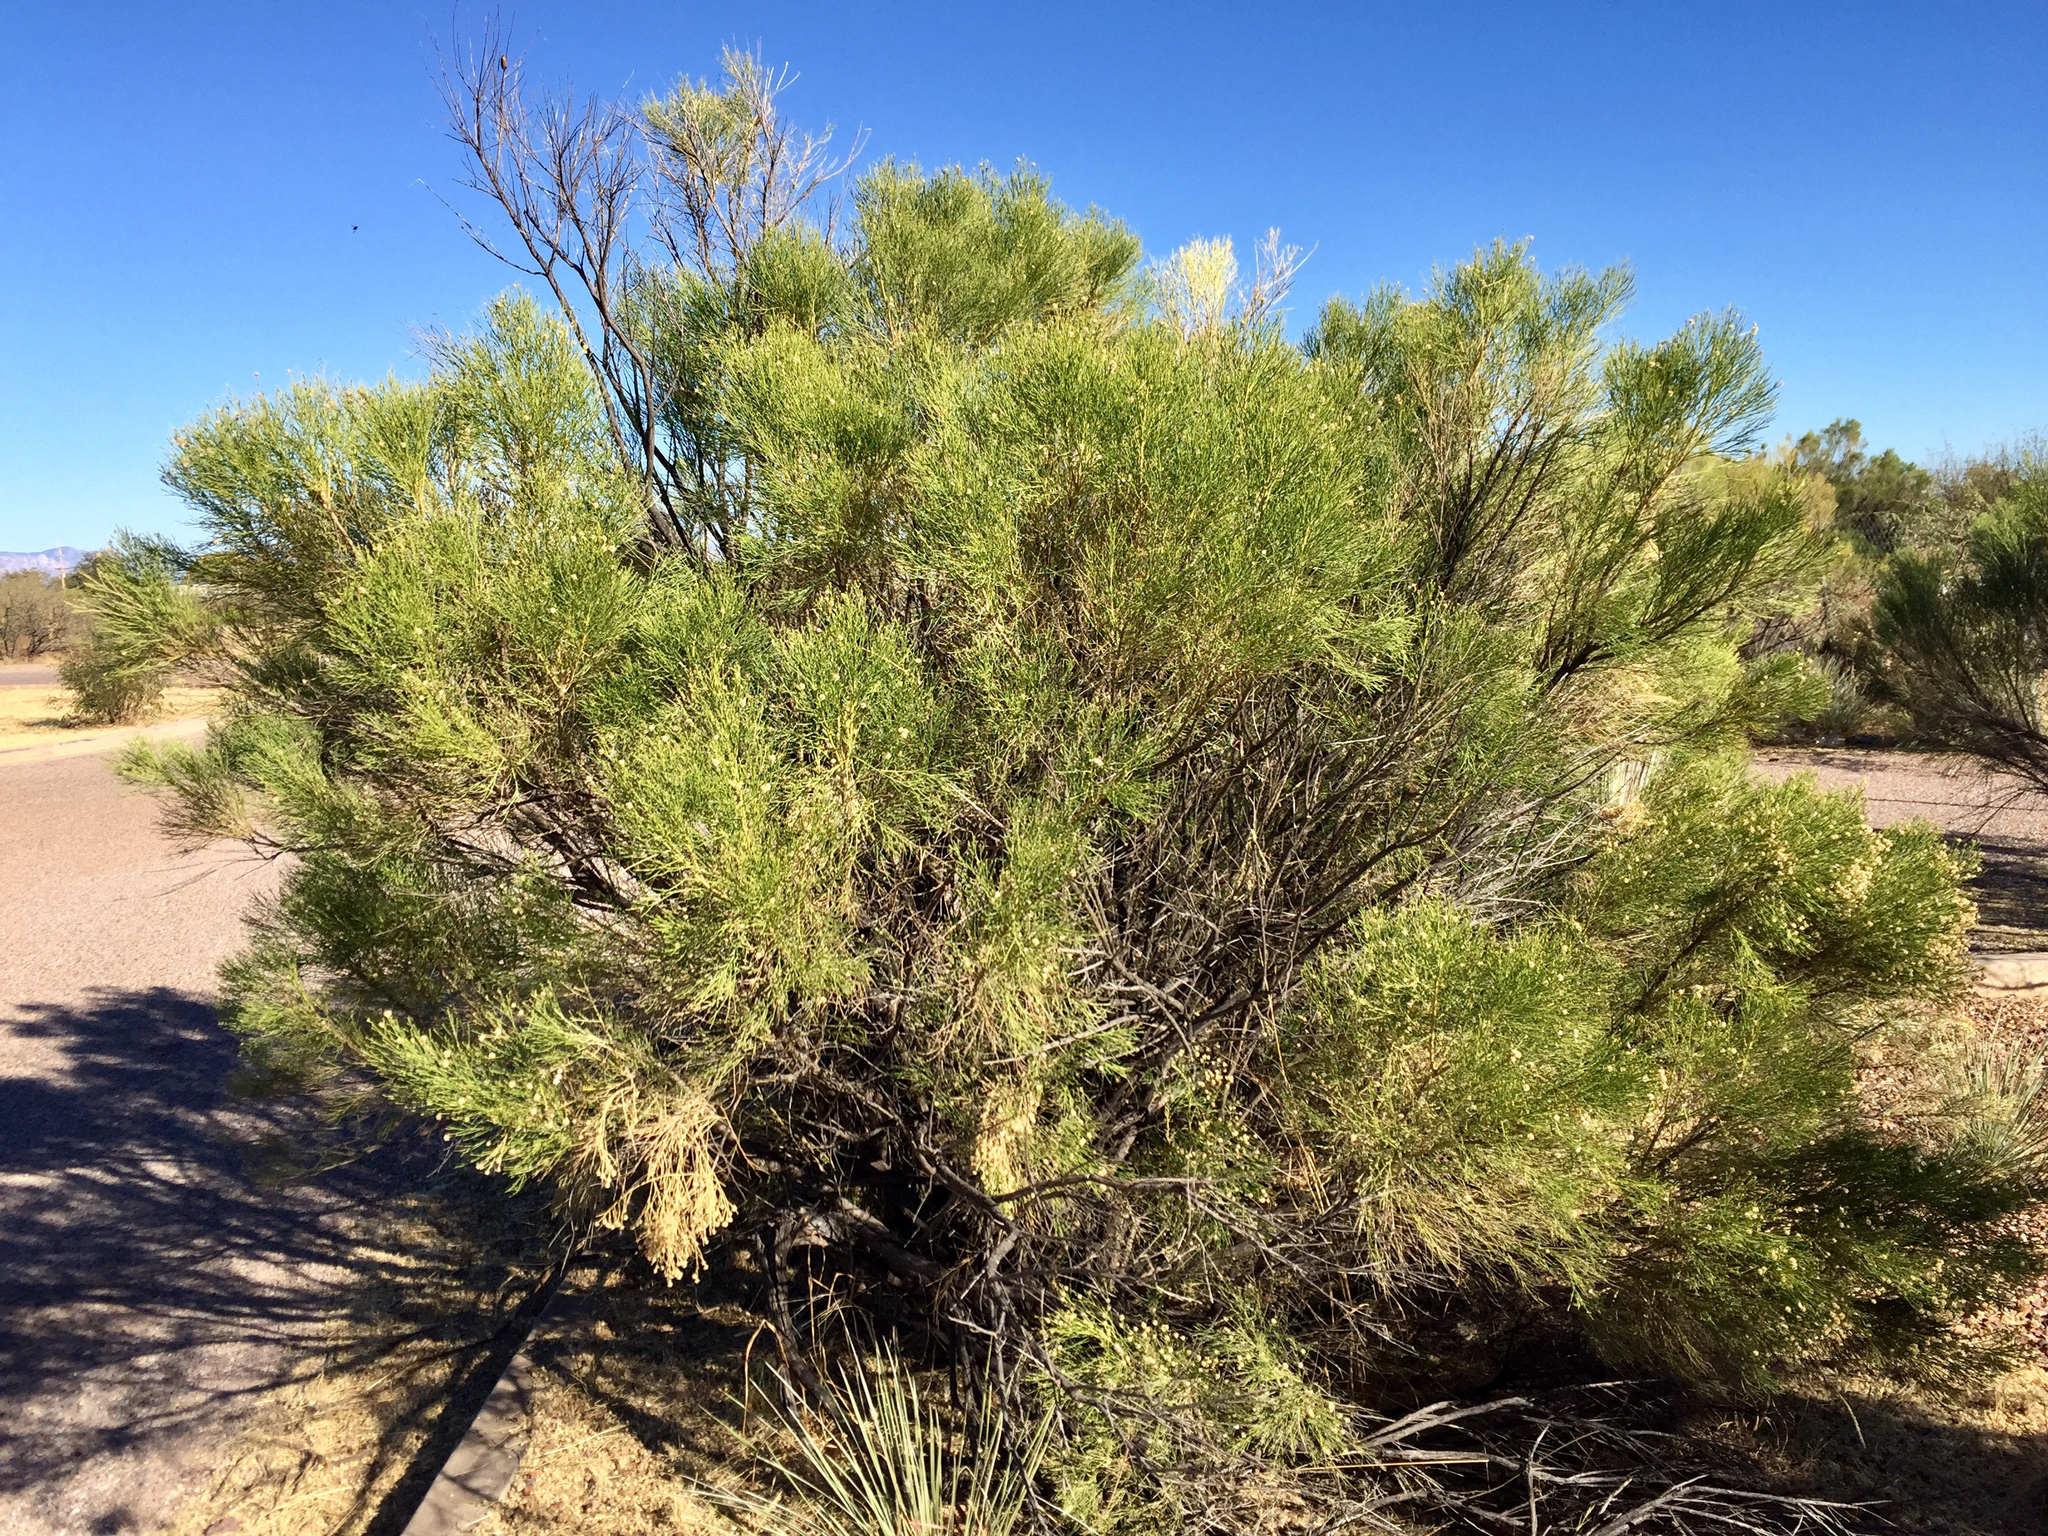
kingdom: Plantae
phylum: Tracheophyta
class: Magnoliopsida
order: Asterales
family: Asteraceae
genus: Baccharis
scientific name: Baccharis sarothroides
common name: Desert-broom
